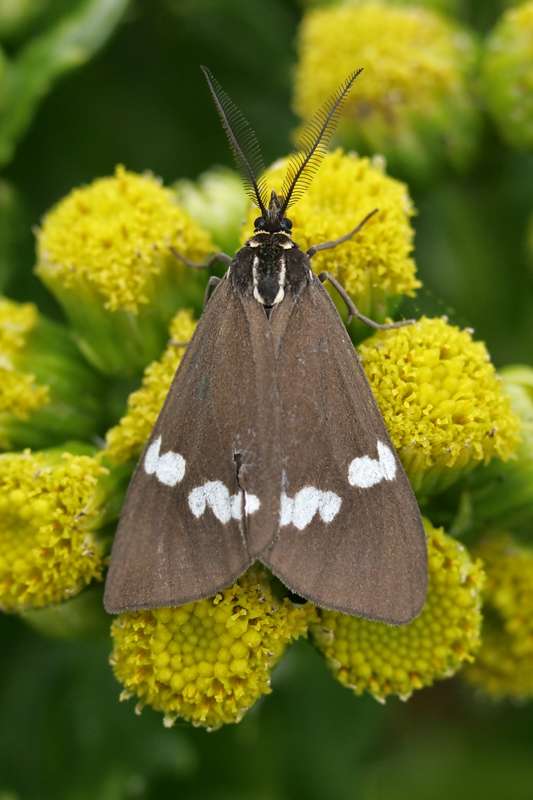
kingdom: Animalia
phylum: Arthropoda
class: Insecta
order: Lepidoptera
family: Erebidae
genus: Nyctemera
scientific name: Nyctemera annulatum
